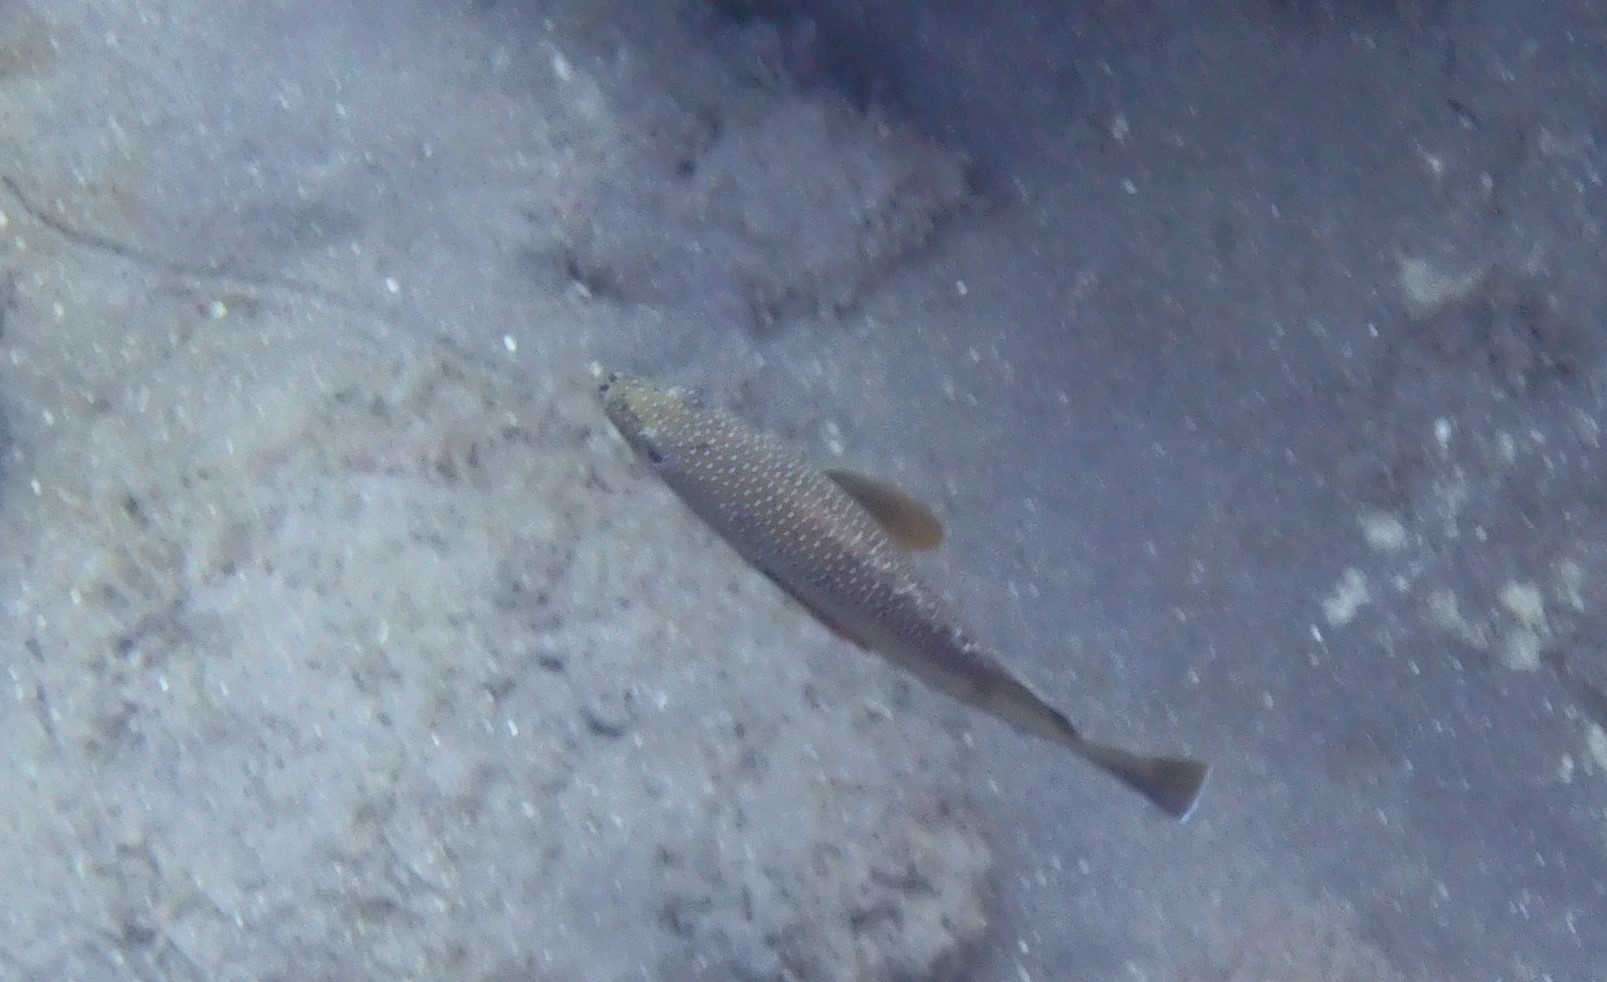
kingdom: Animalia
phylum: Chordata
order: Perciformes
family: Serranidae
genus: Cephalopholis
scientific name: Cephalopholis fulva
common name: Butterfish
